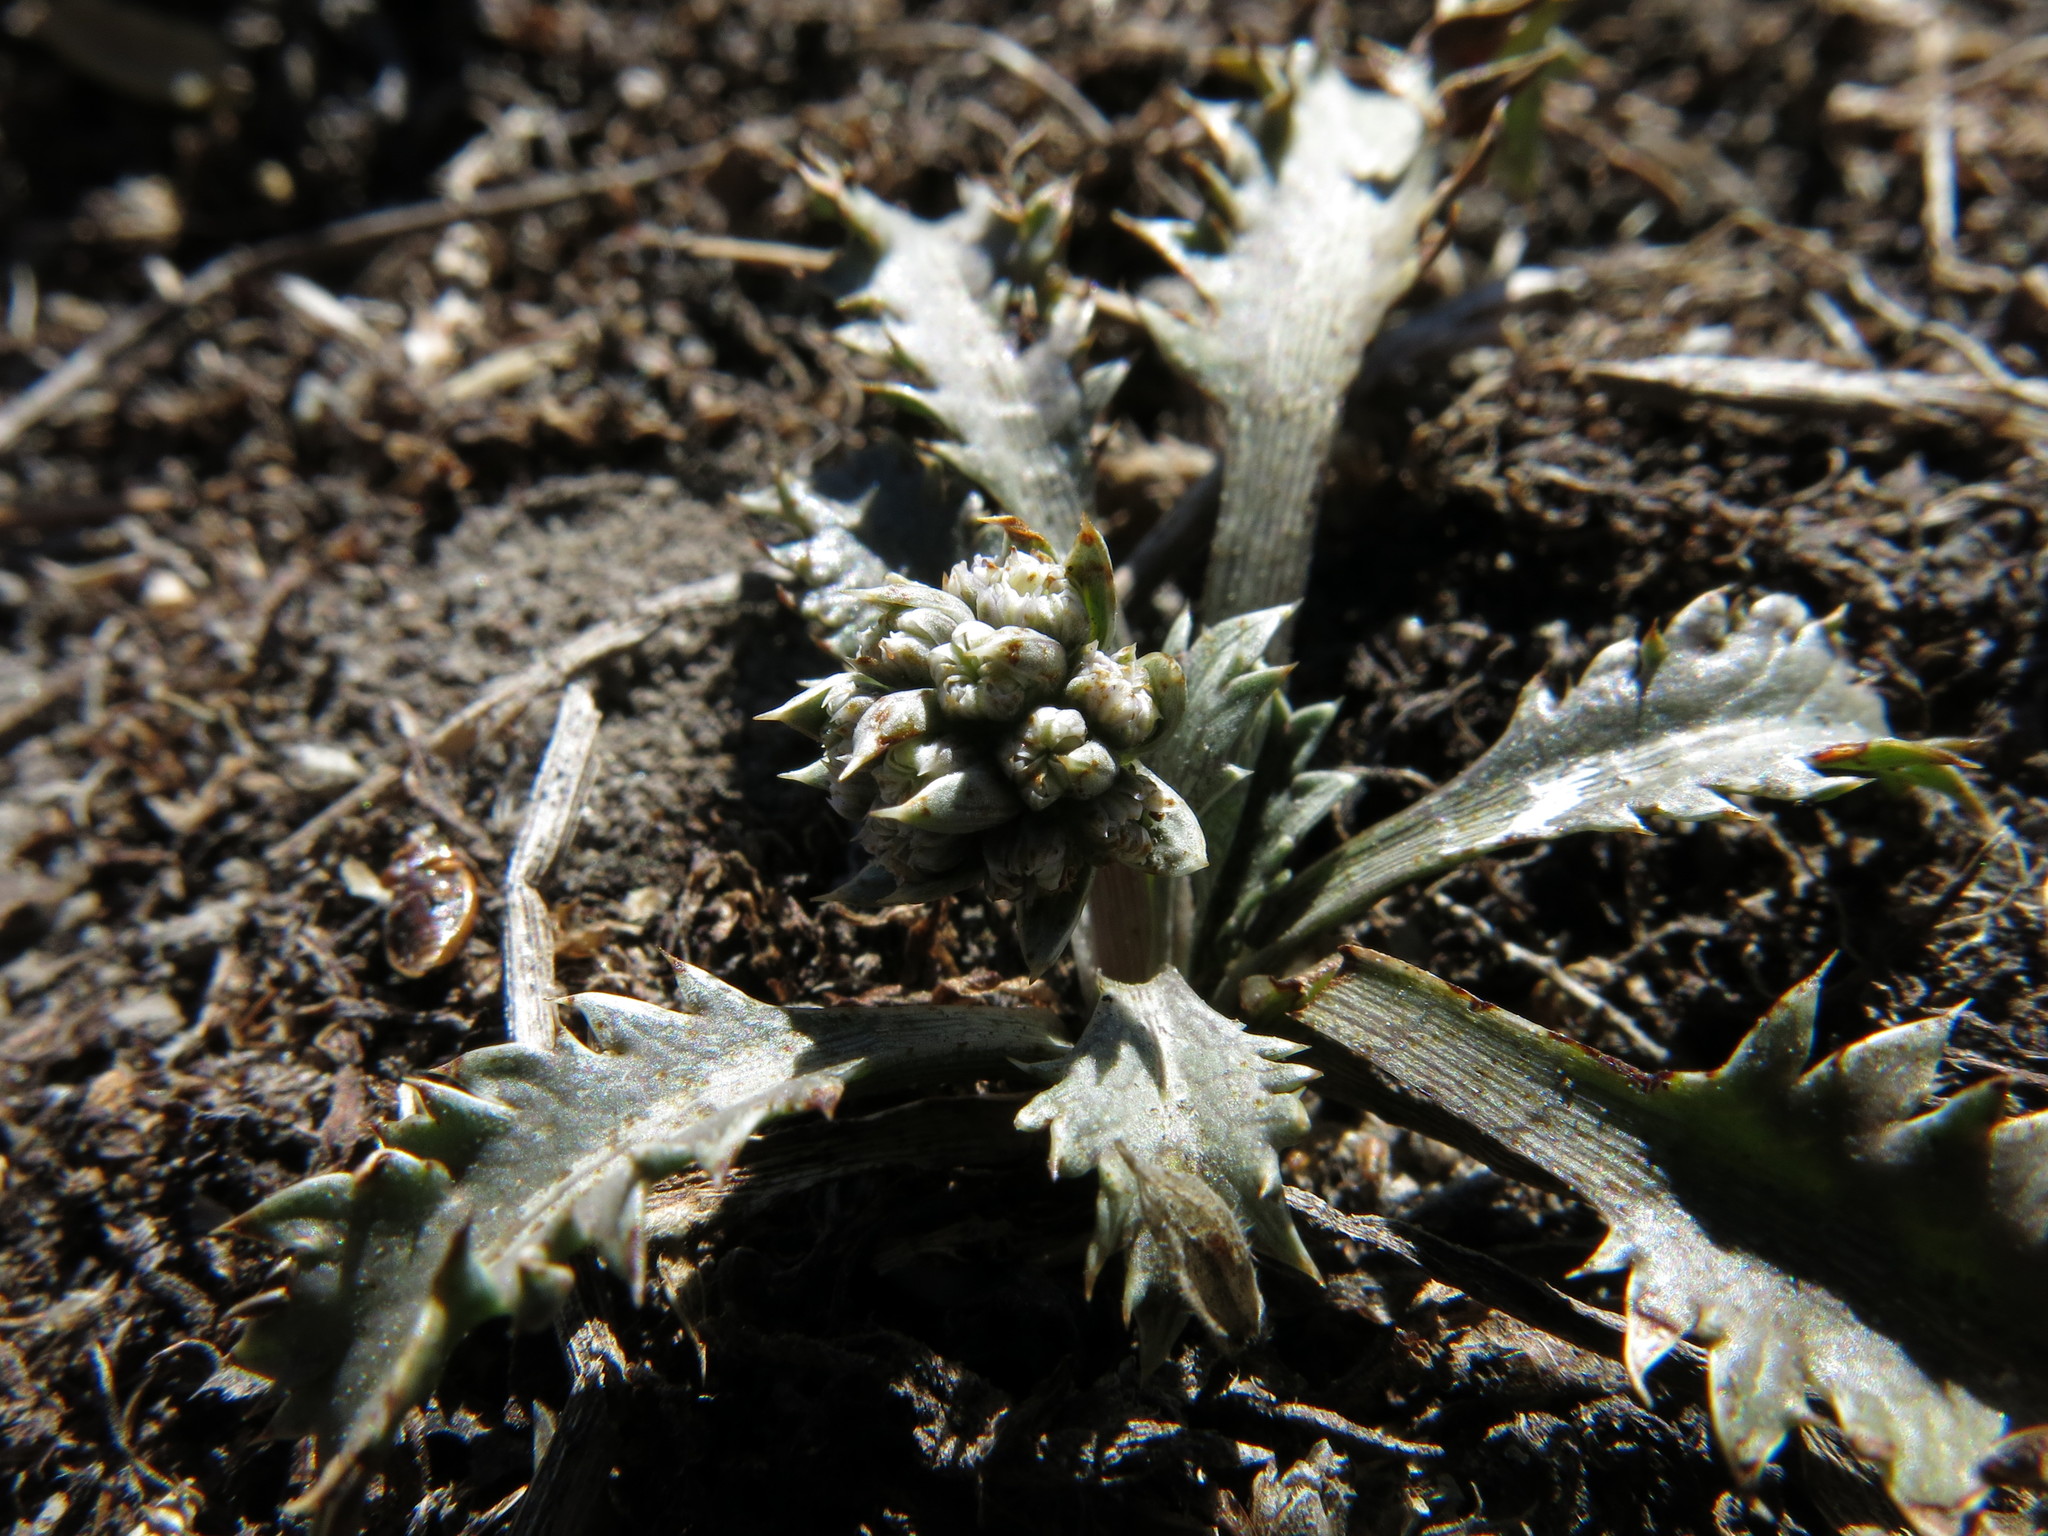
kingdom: Plantae
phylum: Tracheophyta
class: Magnoliopsida
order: Apiales
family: Apiaceae
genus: Eryngium
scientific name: Eryngium vesiculosum
